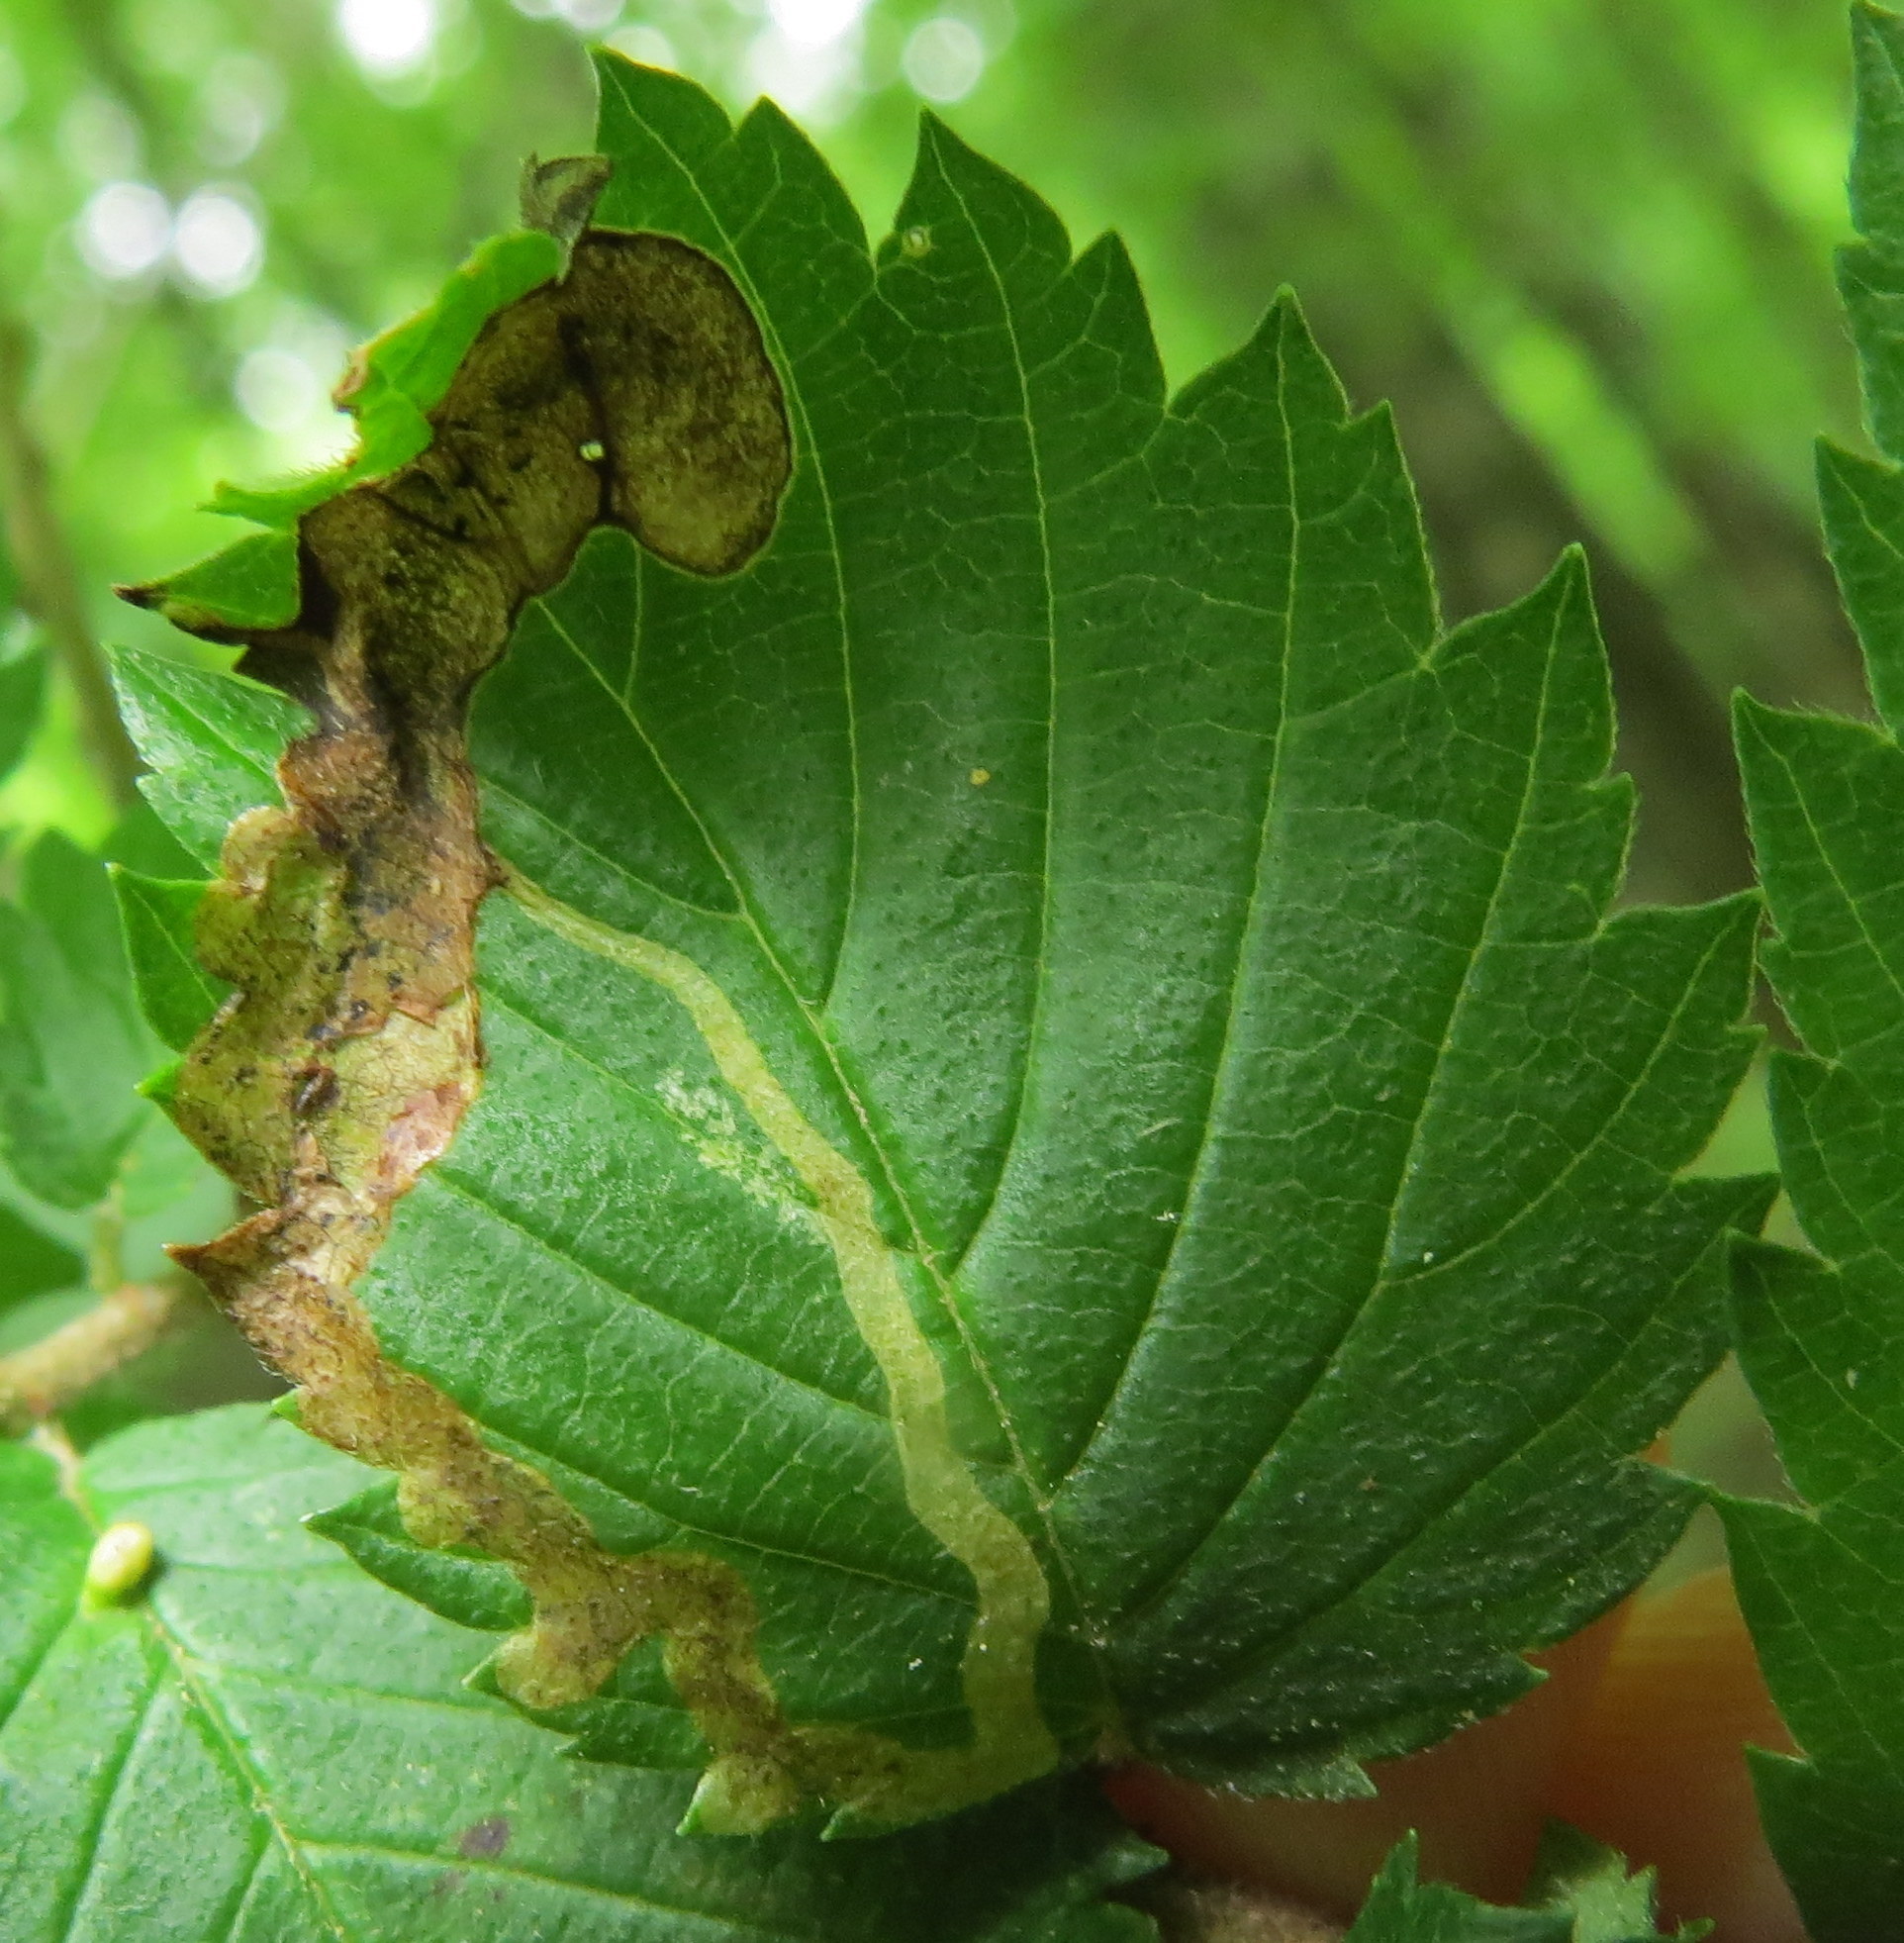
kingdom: Animalia
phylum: Arthropoda
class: Insecta
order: Diptera
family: Agromyzidae
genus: Agromyza
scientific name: Agromyza aristata
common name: Elm agromyzid leafminer
